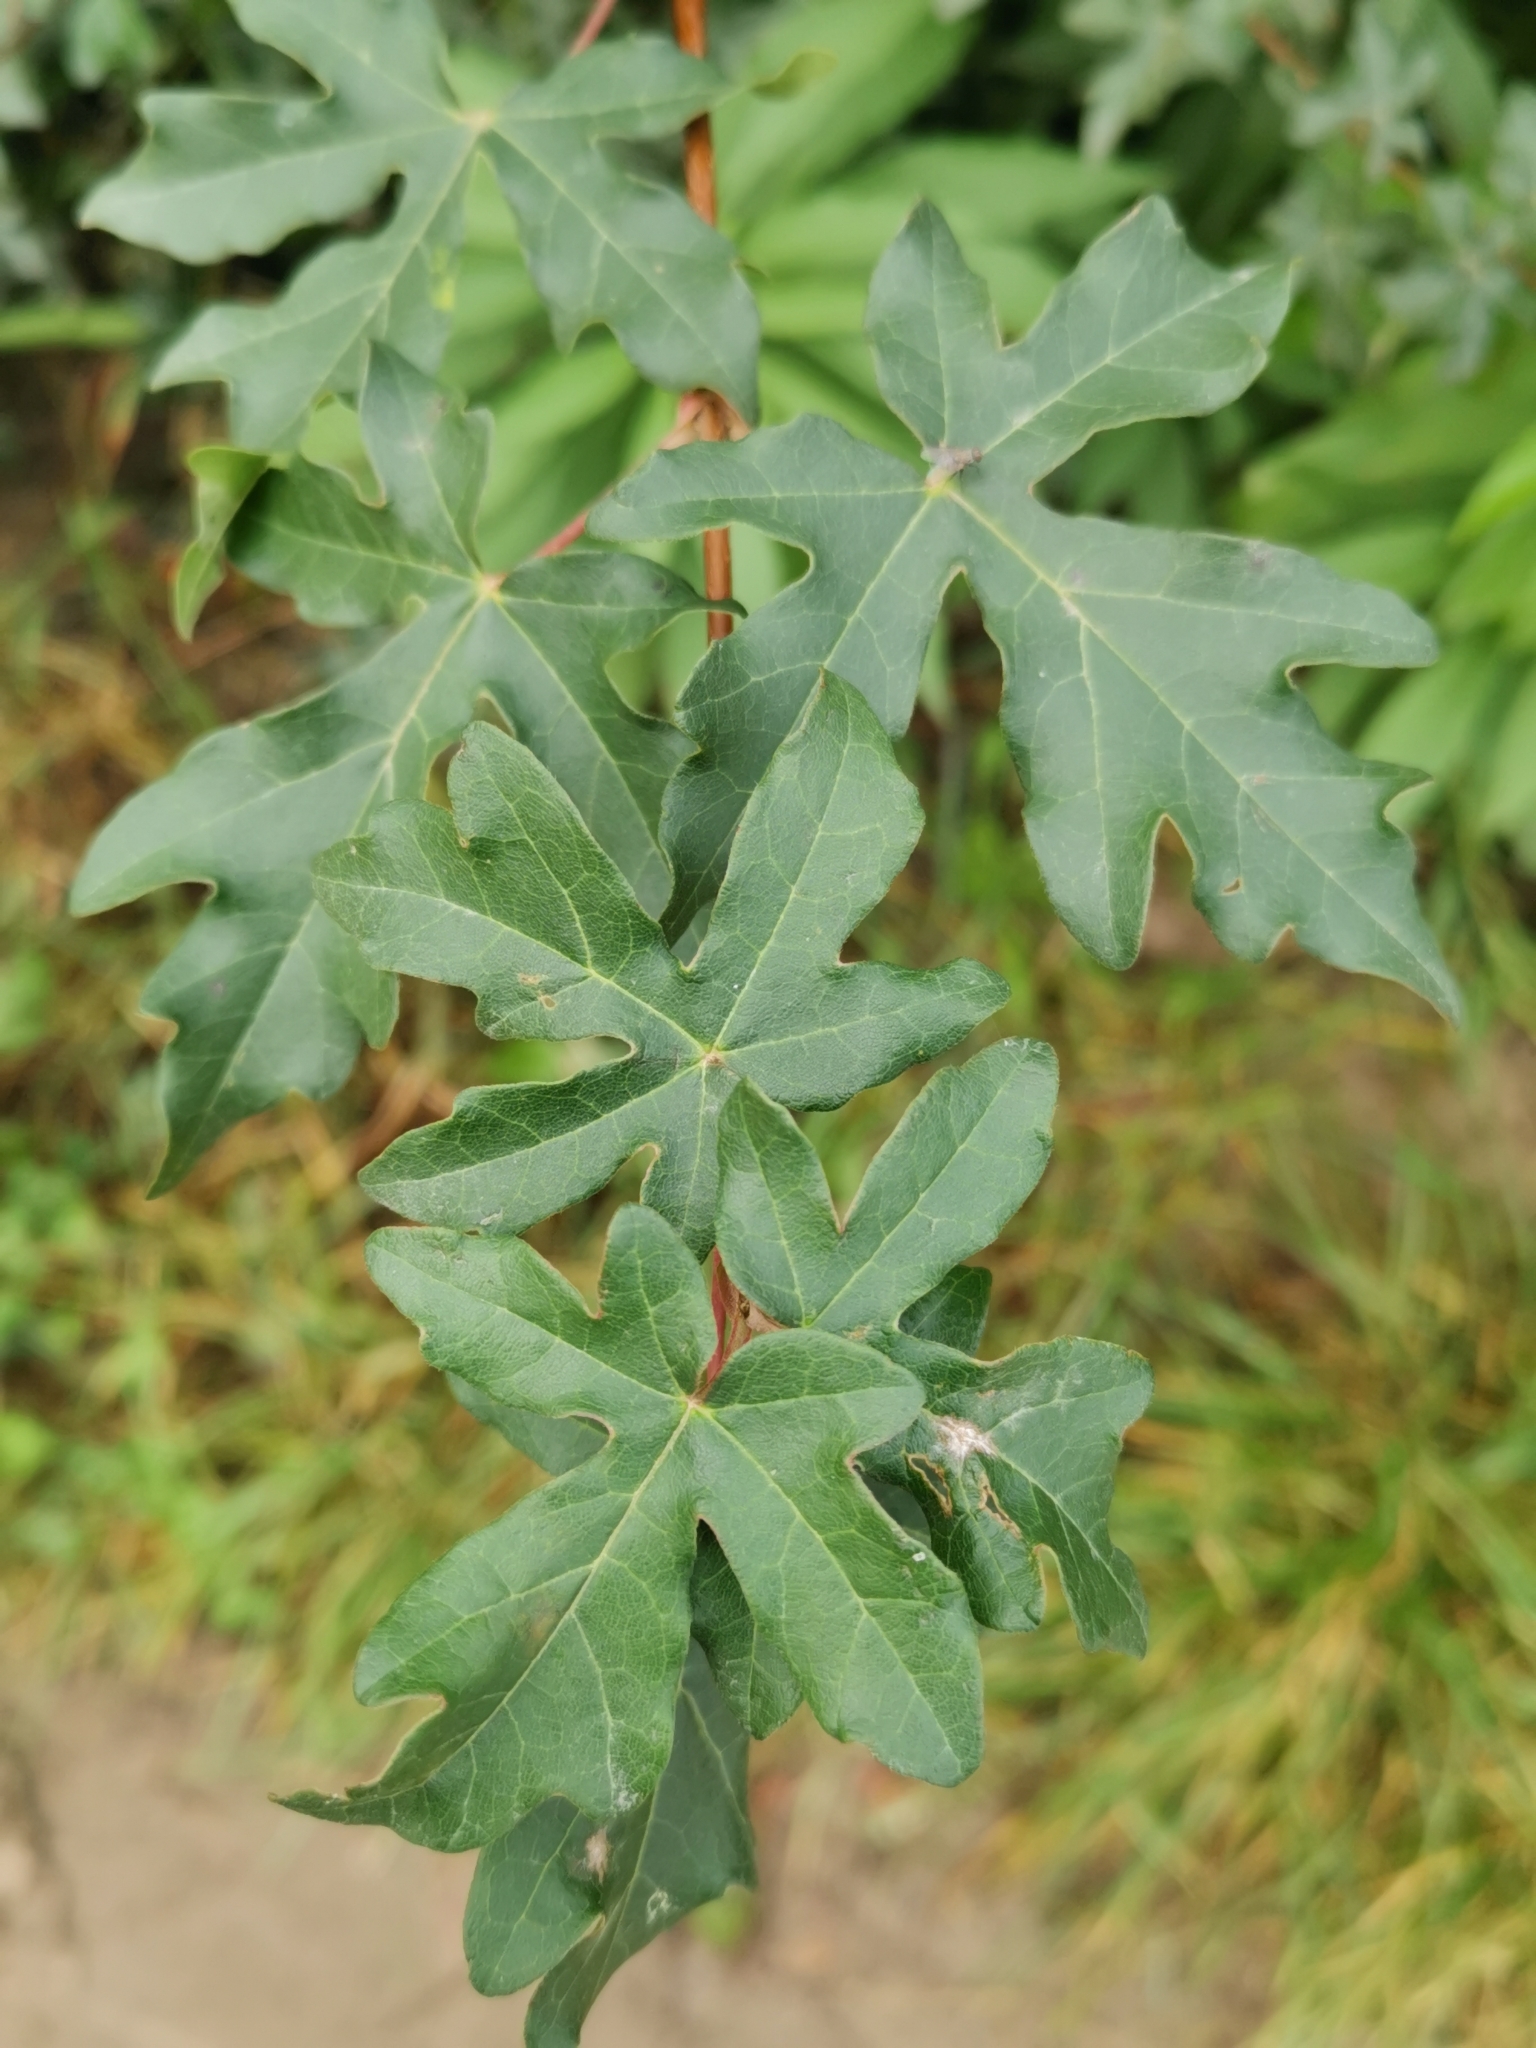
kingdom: Plantae
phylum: Tracheophyta
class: Magnoliopsida
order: Sapindales
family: Sapindaceae
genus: Acer
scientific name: Acer campestre
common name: Field maple
